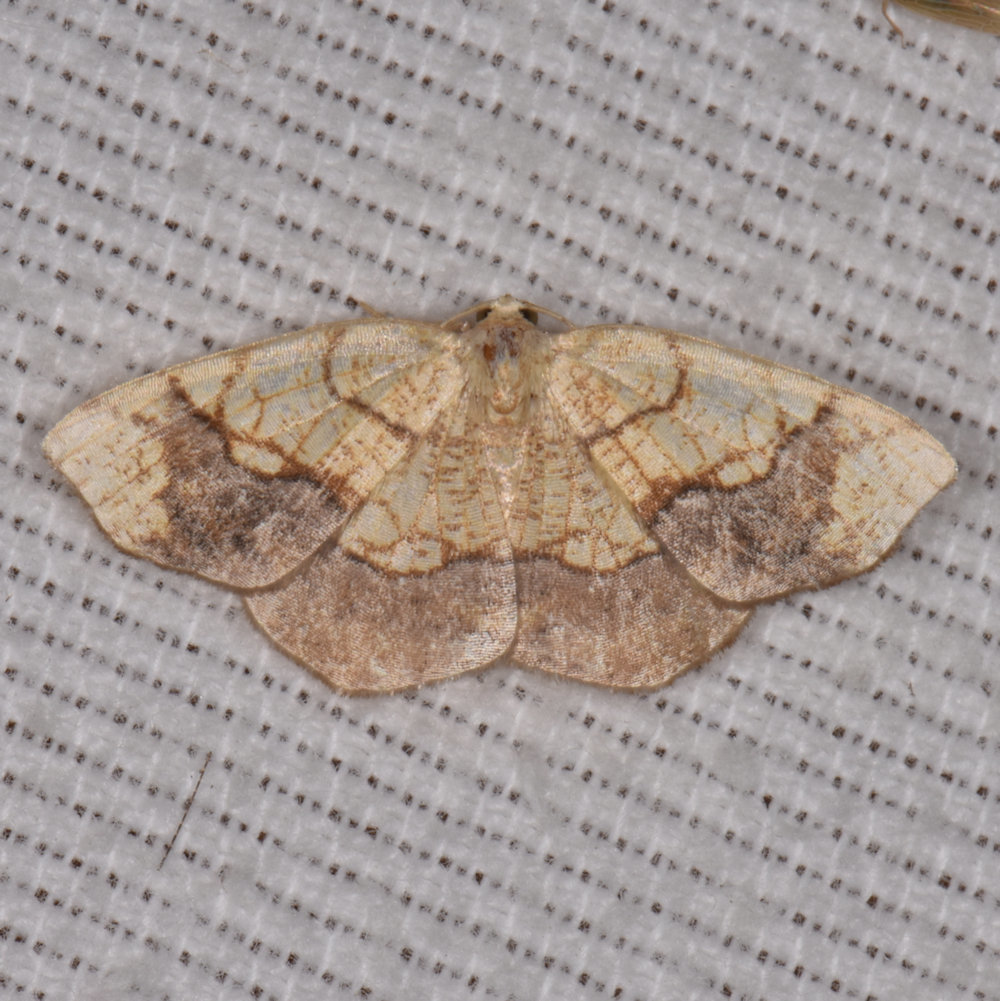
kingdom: Animalia
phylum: Arthropoda
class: Insecta
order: Lepidoptera
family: Geometridae
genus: Nematocampa
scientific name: Nematocampa resistaria
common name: Horned spanworm moth
